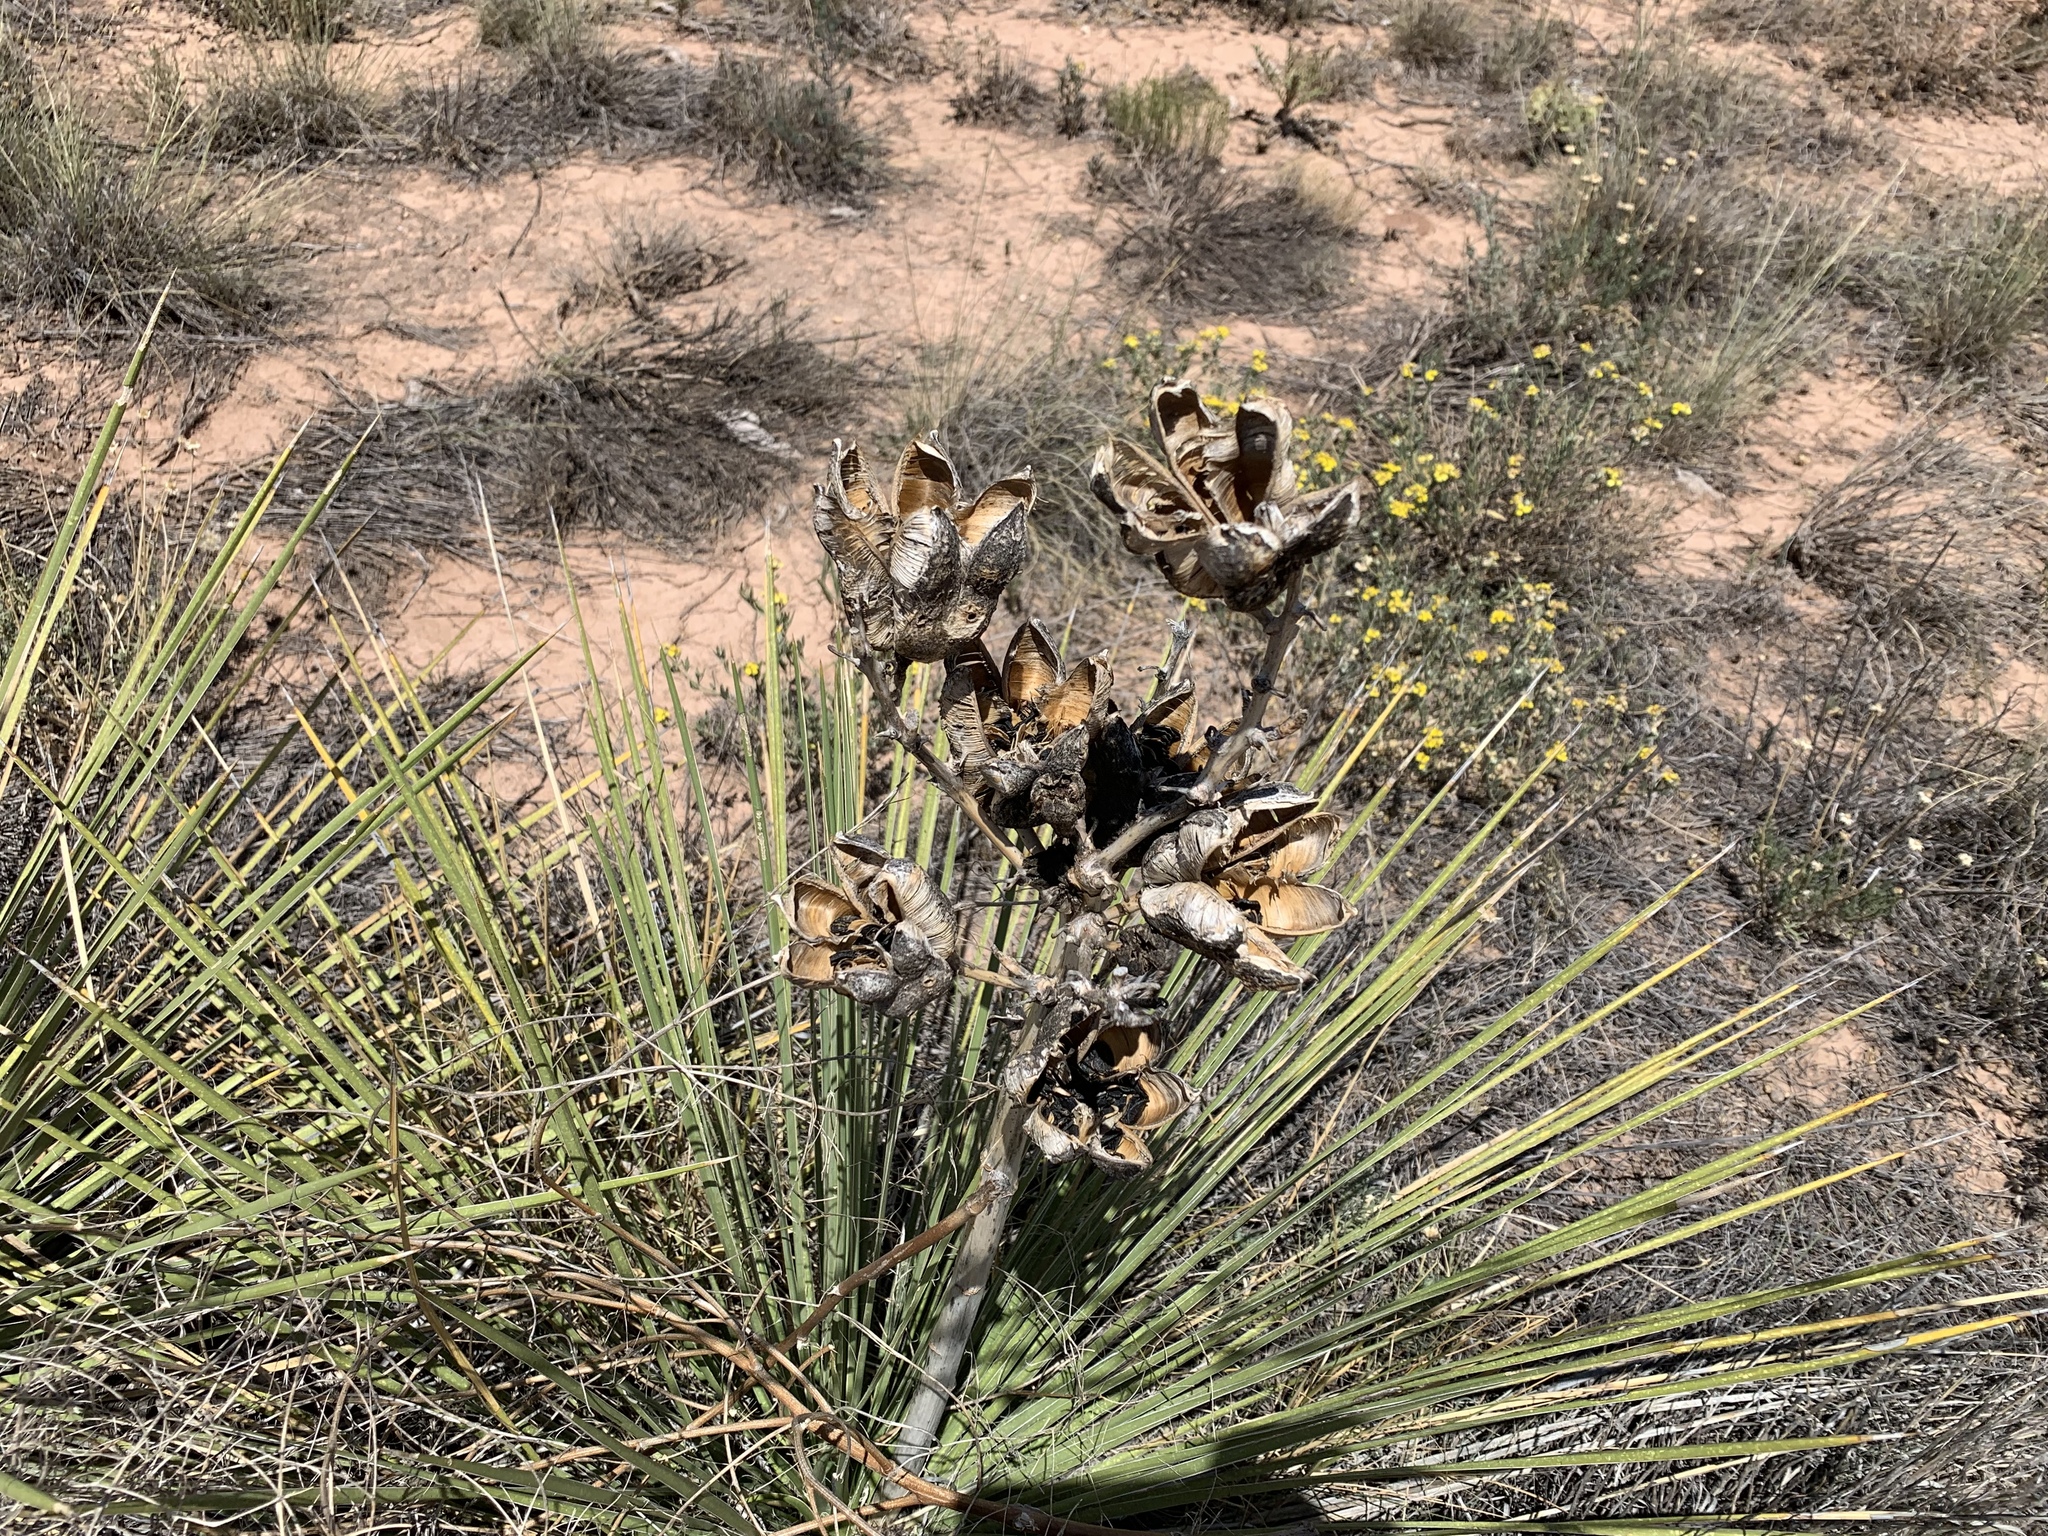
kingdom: Plantae
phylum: Tracheophyta
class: Liliopsida
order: Asparagales
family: Asparagaceae
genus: Yucca
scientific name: Yucca campestris
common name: Plains yucca
